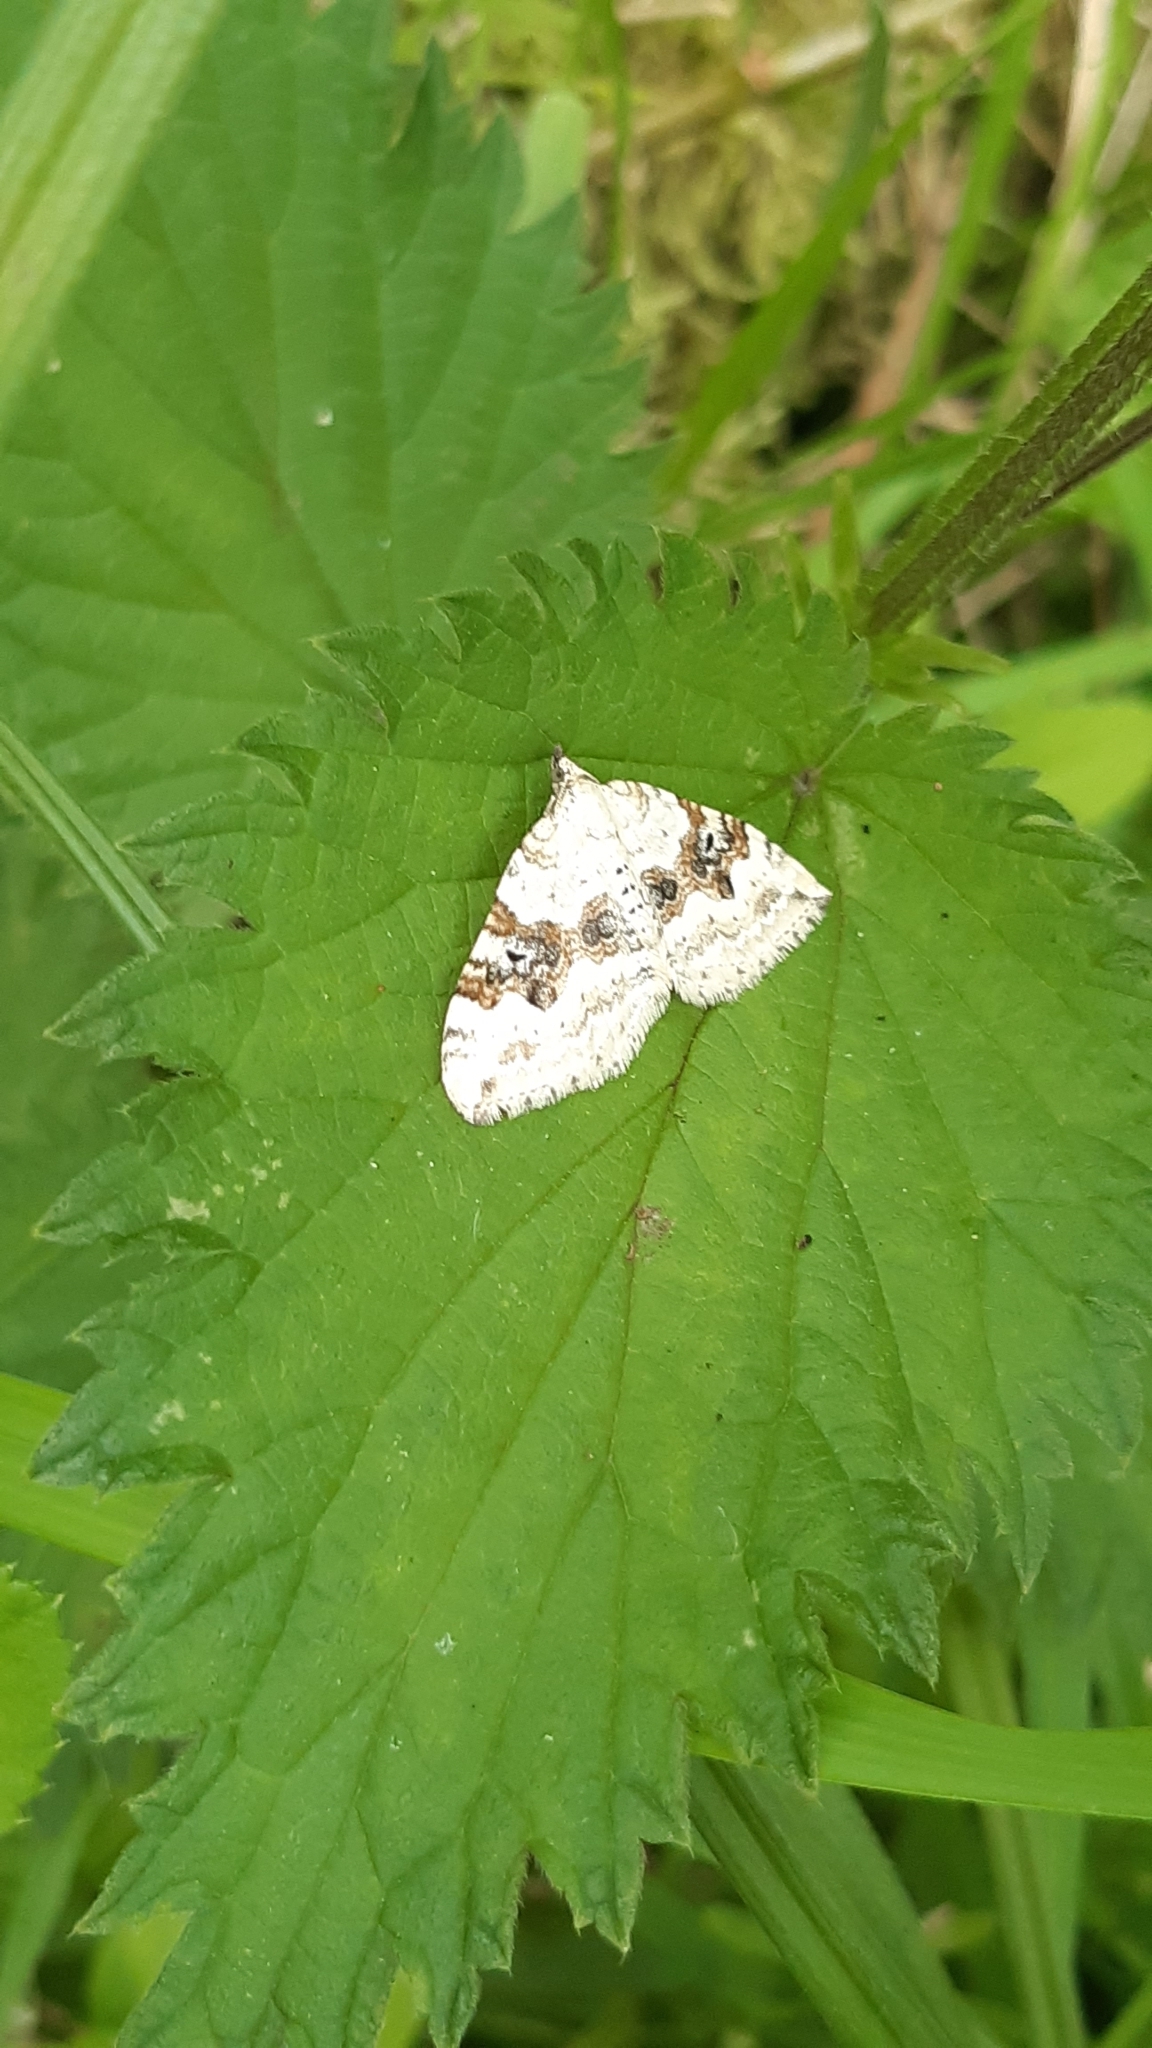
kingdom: Animalia
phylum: Arthropoda
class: Insecta
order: Lepidoptera
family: Geometridae
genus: Xanthorhoe
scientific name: Xanthorhoe montanata
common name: Silver-ground carpet
